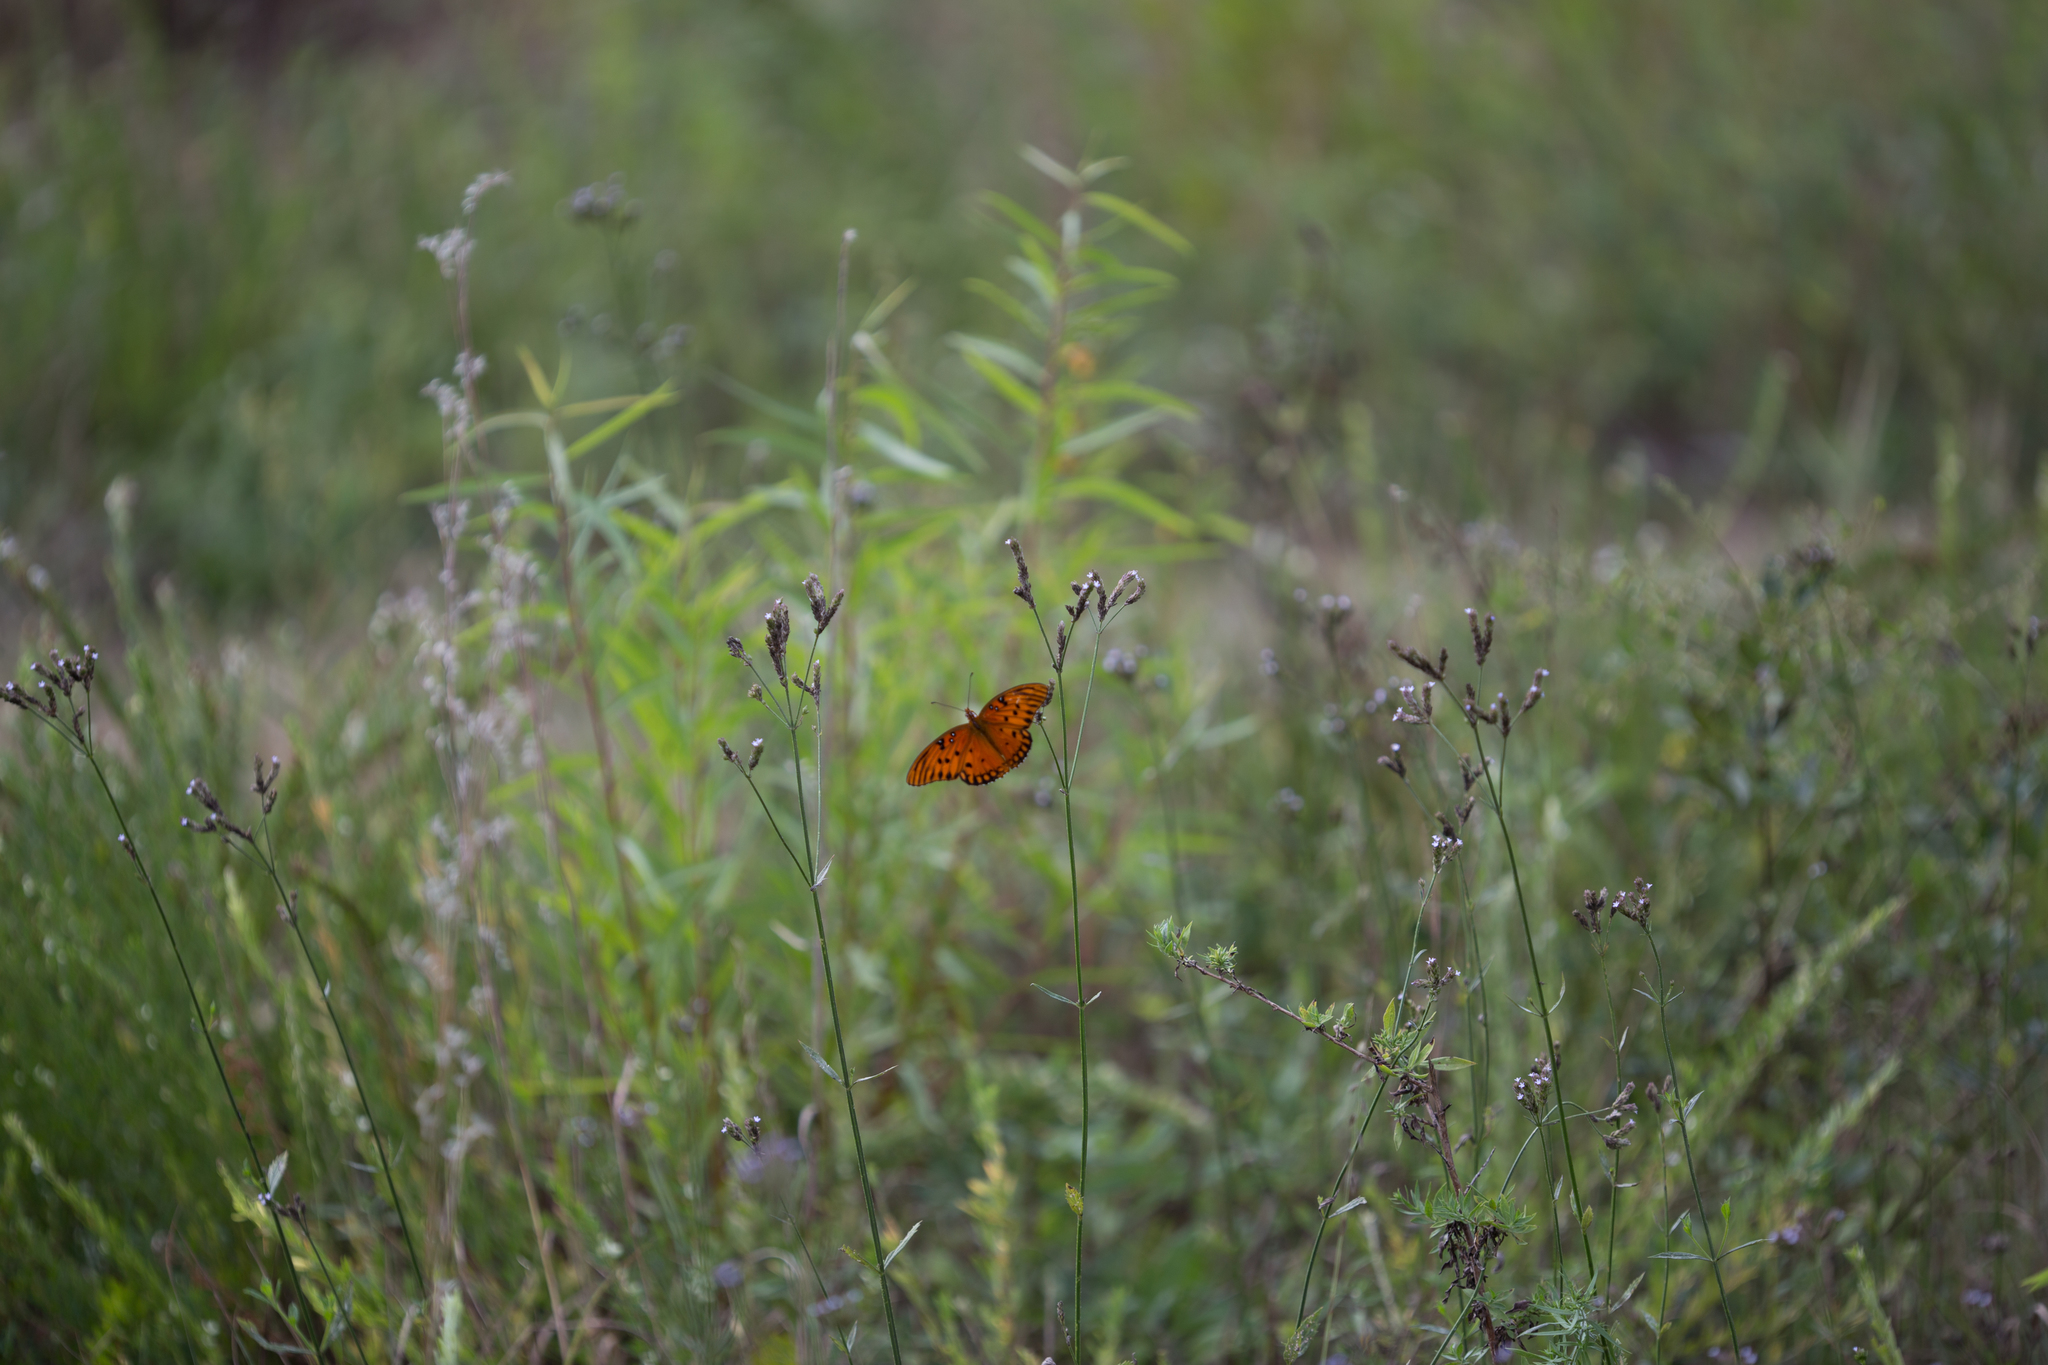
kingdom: Animalia
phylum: Arthropoda
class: Insecta
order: Lepidoptera
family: Nymphalidae
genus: Dione
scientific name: Dione vanillae
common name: Gulf fritillary
